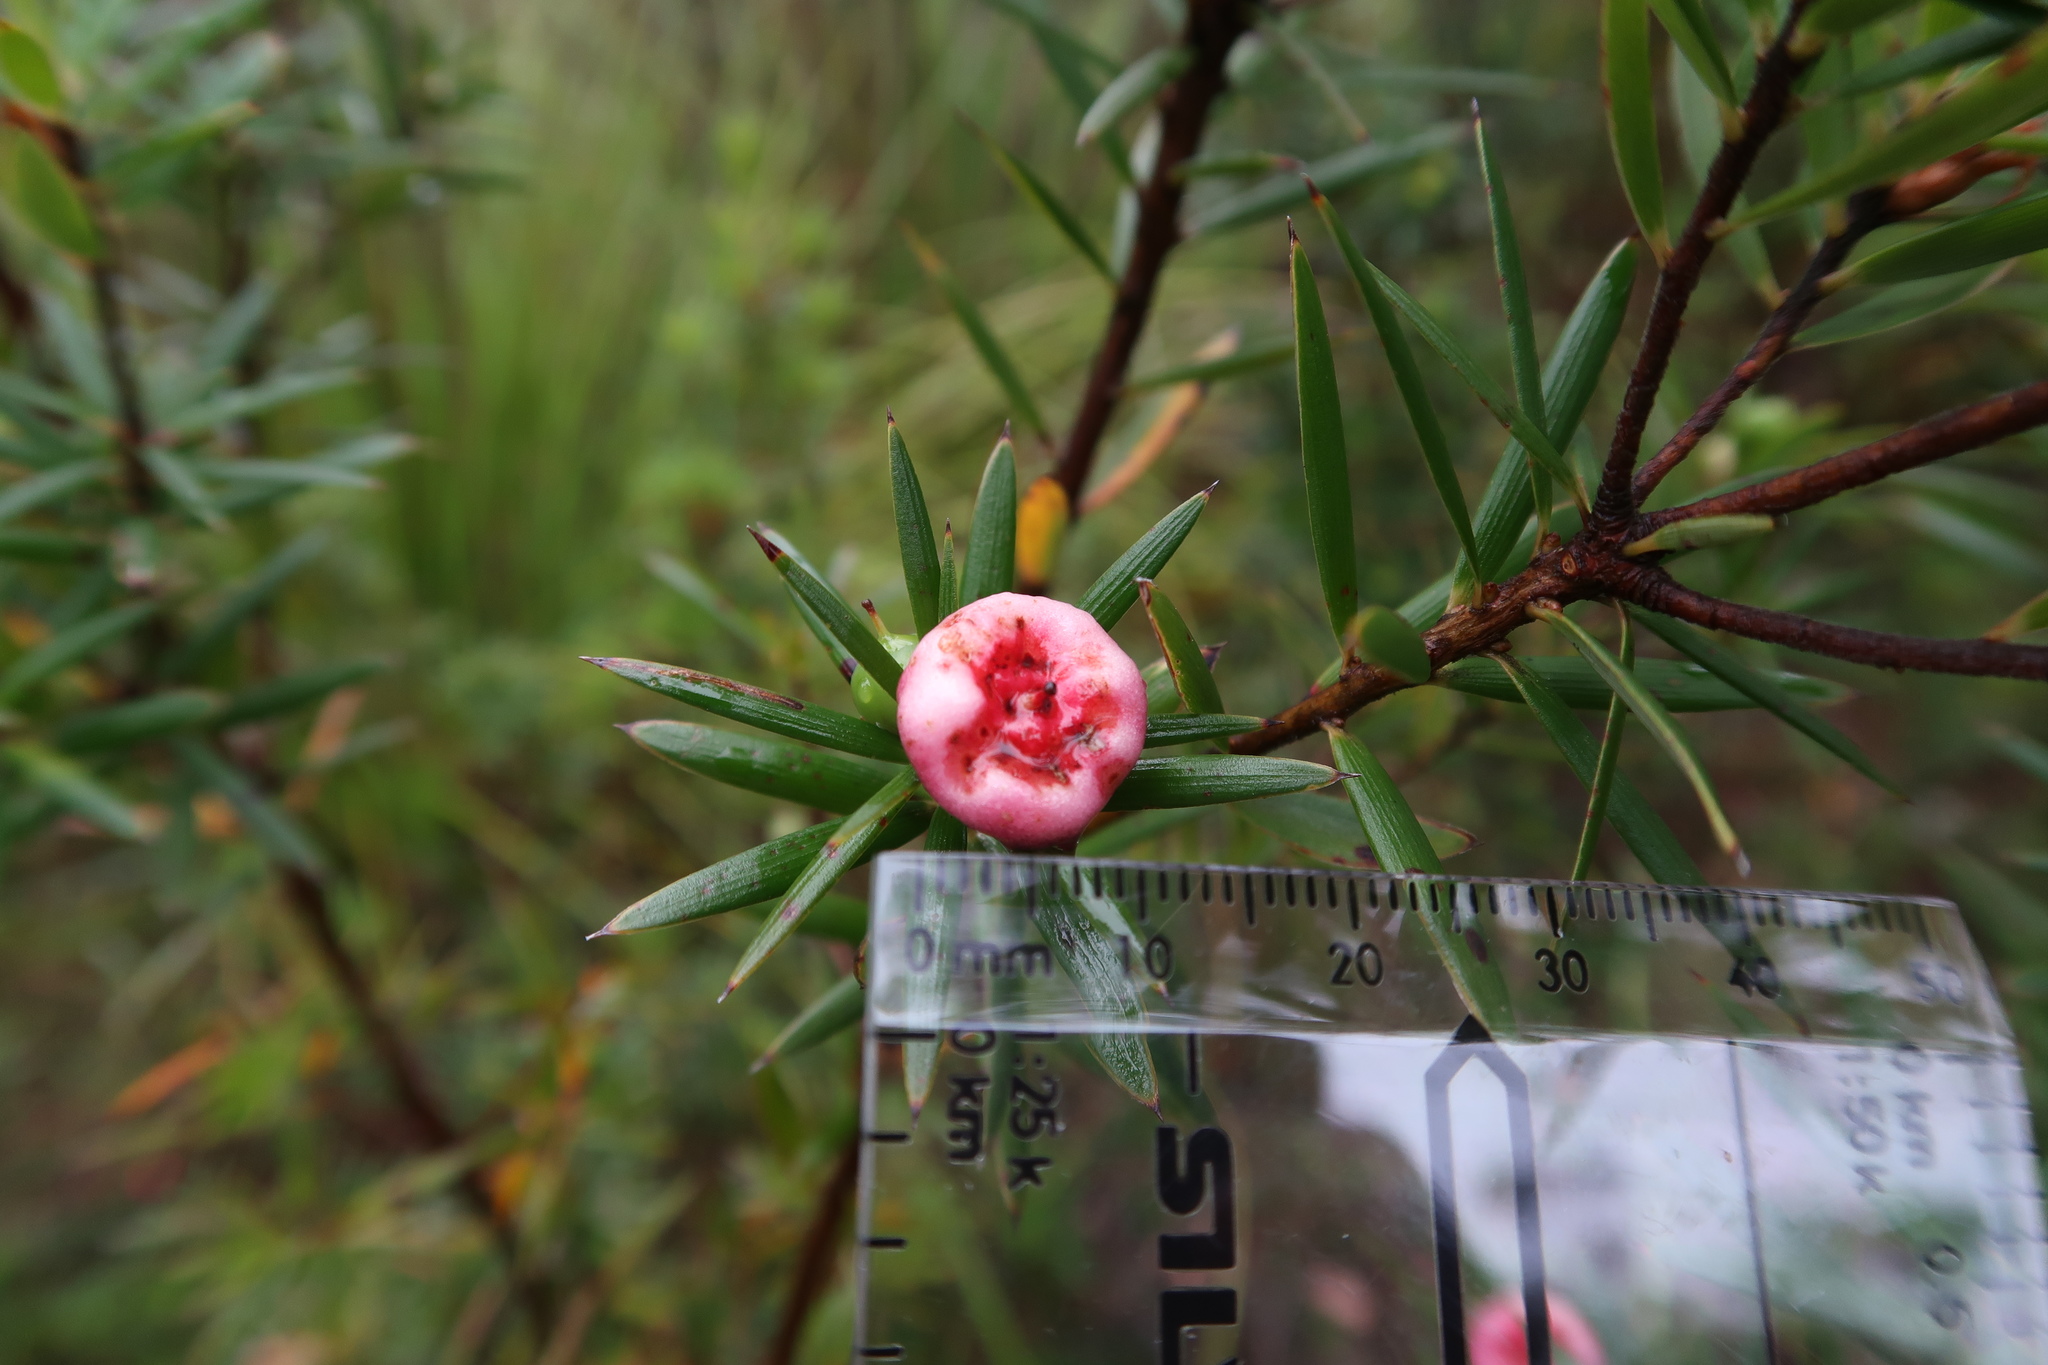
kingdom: Plantae
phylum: Tracheophyta
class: Magnoliopsida
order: Ericales
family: Ericaceae
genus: Cyathodes
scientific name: Cyathodes glauca
